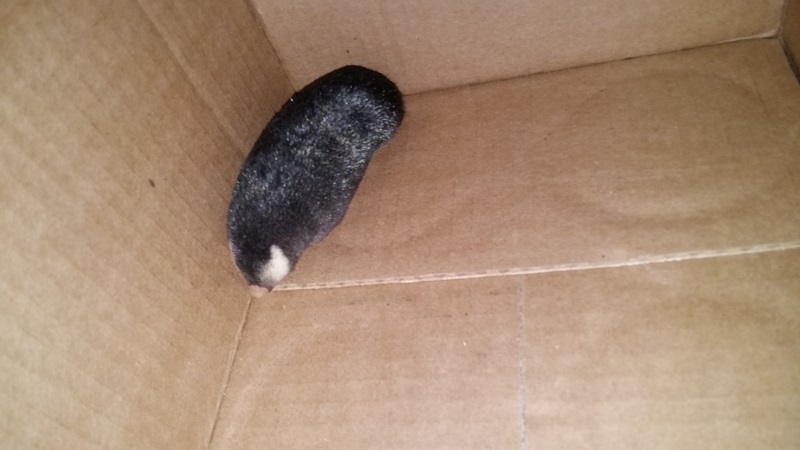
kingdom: Animalia
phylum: Chordata
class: Mammalia
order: Afrosoricida
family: Chrysochloridae
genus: Chrysochloris
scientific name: Chrysochloris asiatica
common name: Cape golden mole
